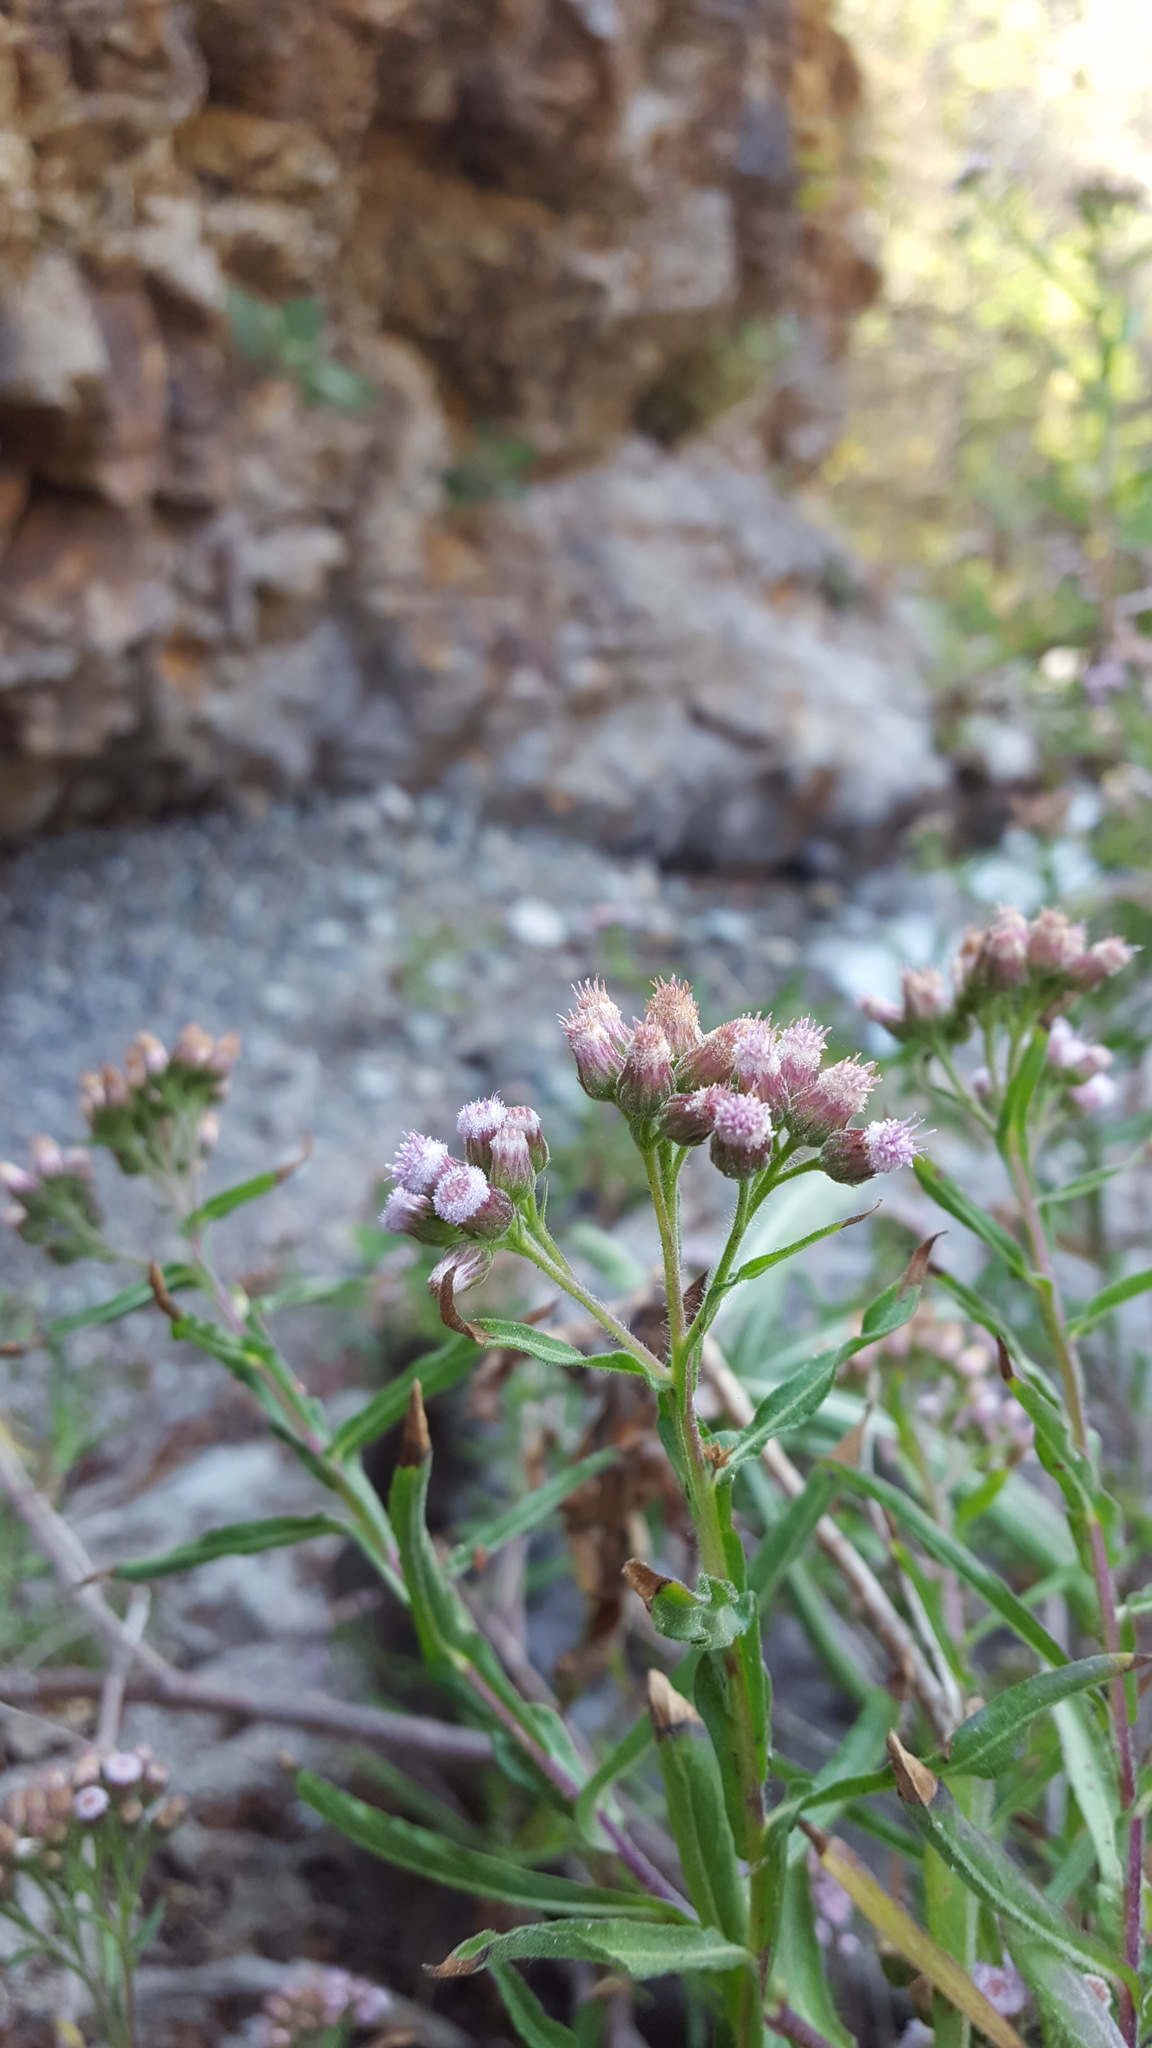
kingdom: Plantae
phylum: Tracheophyta
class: Magnoliopsida
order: Asterales
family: Asteraceae
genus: Pluchea
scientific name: Pluchea salicifolia
